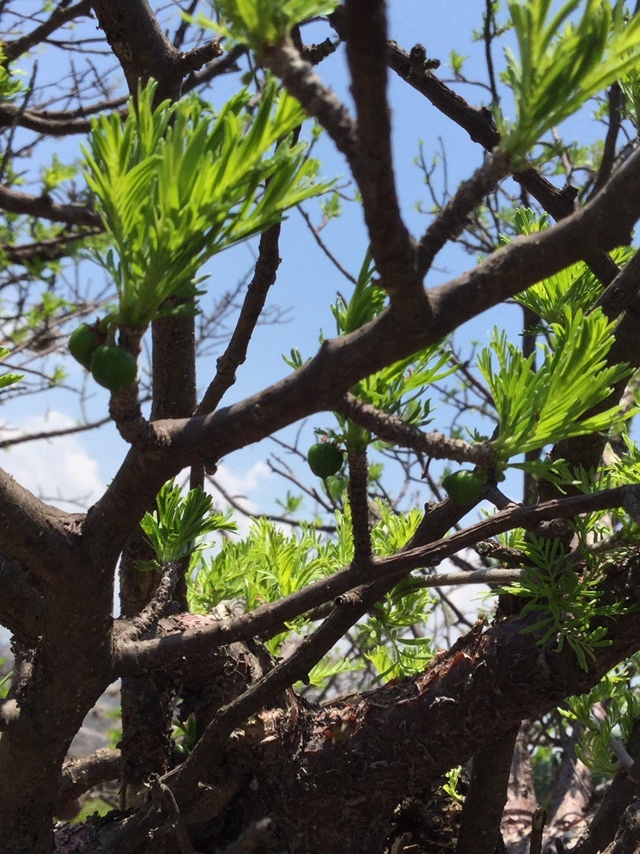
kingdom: Plantae
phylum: Tracheophyta
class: Magnoliopsida
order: Sapindales
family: Burseraceae
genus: Bursera
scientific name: Bursera galeottiana
